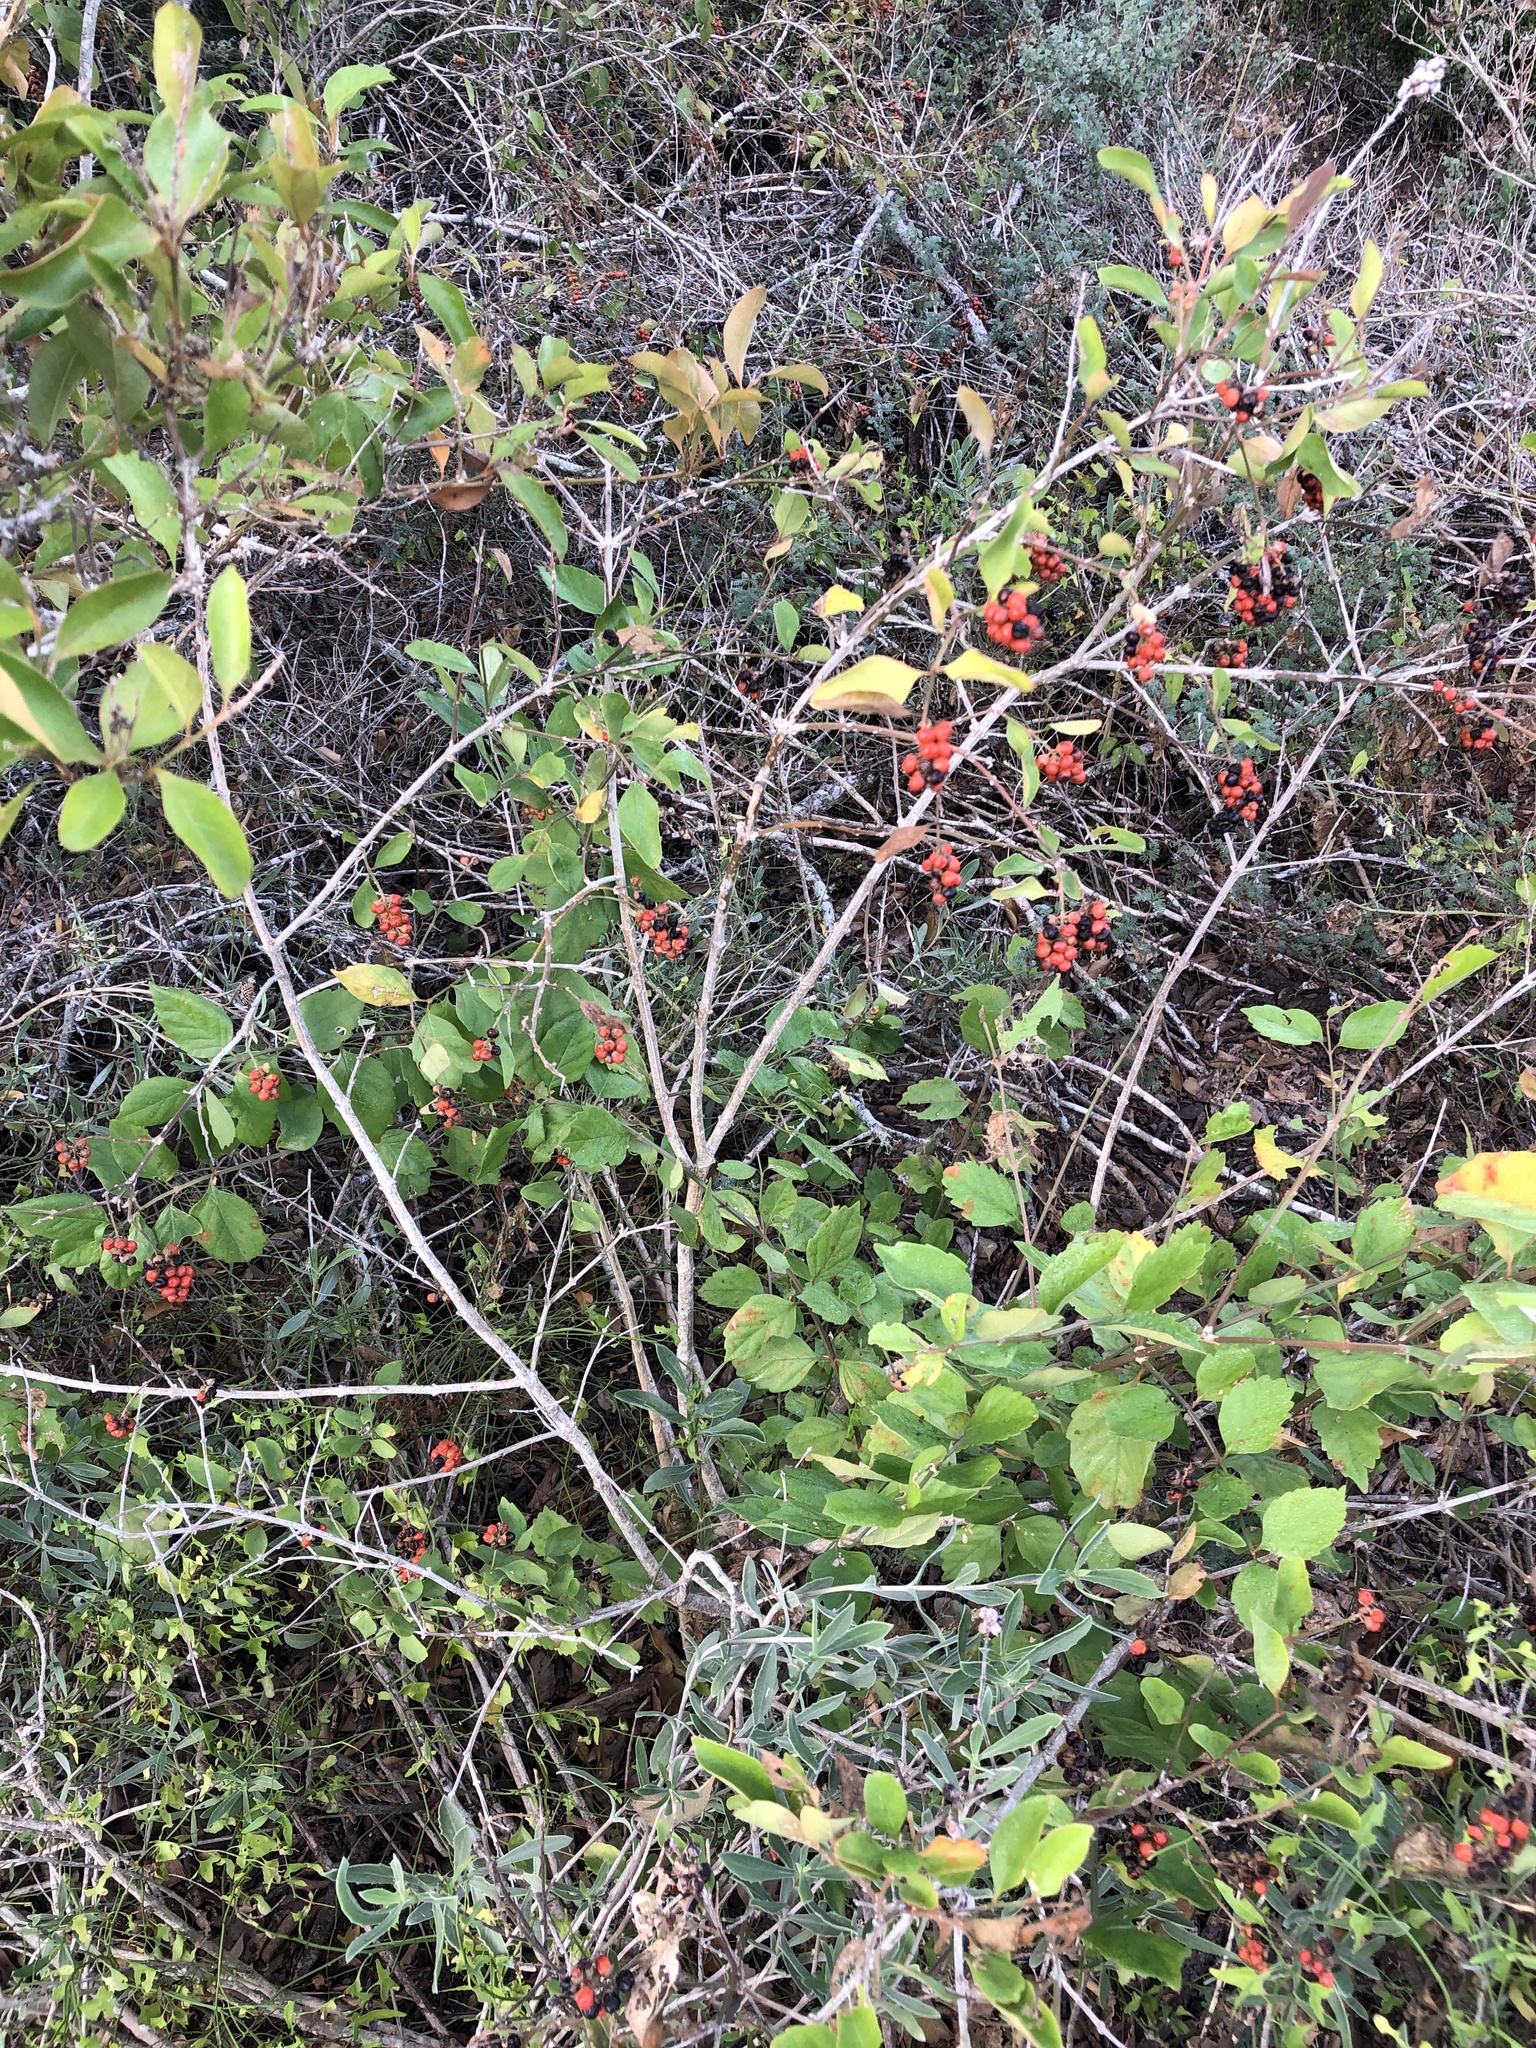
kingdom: Plantae
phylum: Tracheophyta
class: Magnoliopsida
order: Lamiales
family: Verbenaceae
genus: Citharexylum
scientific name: Citharexylum berlandieri
